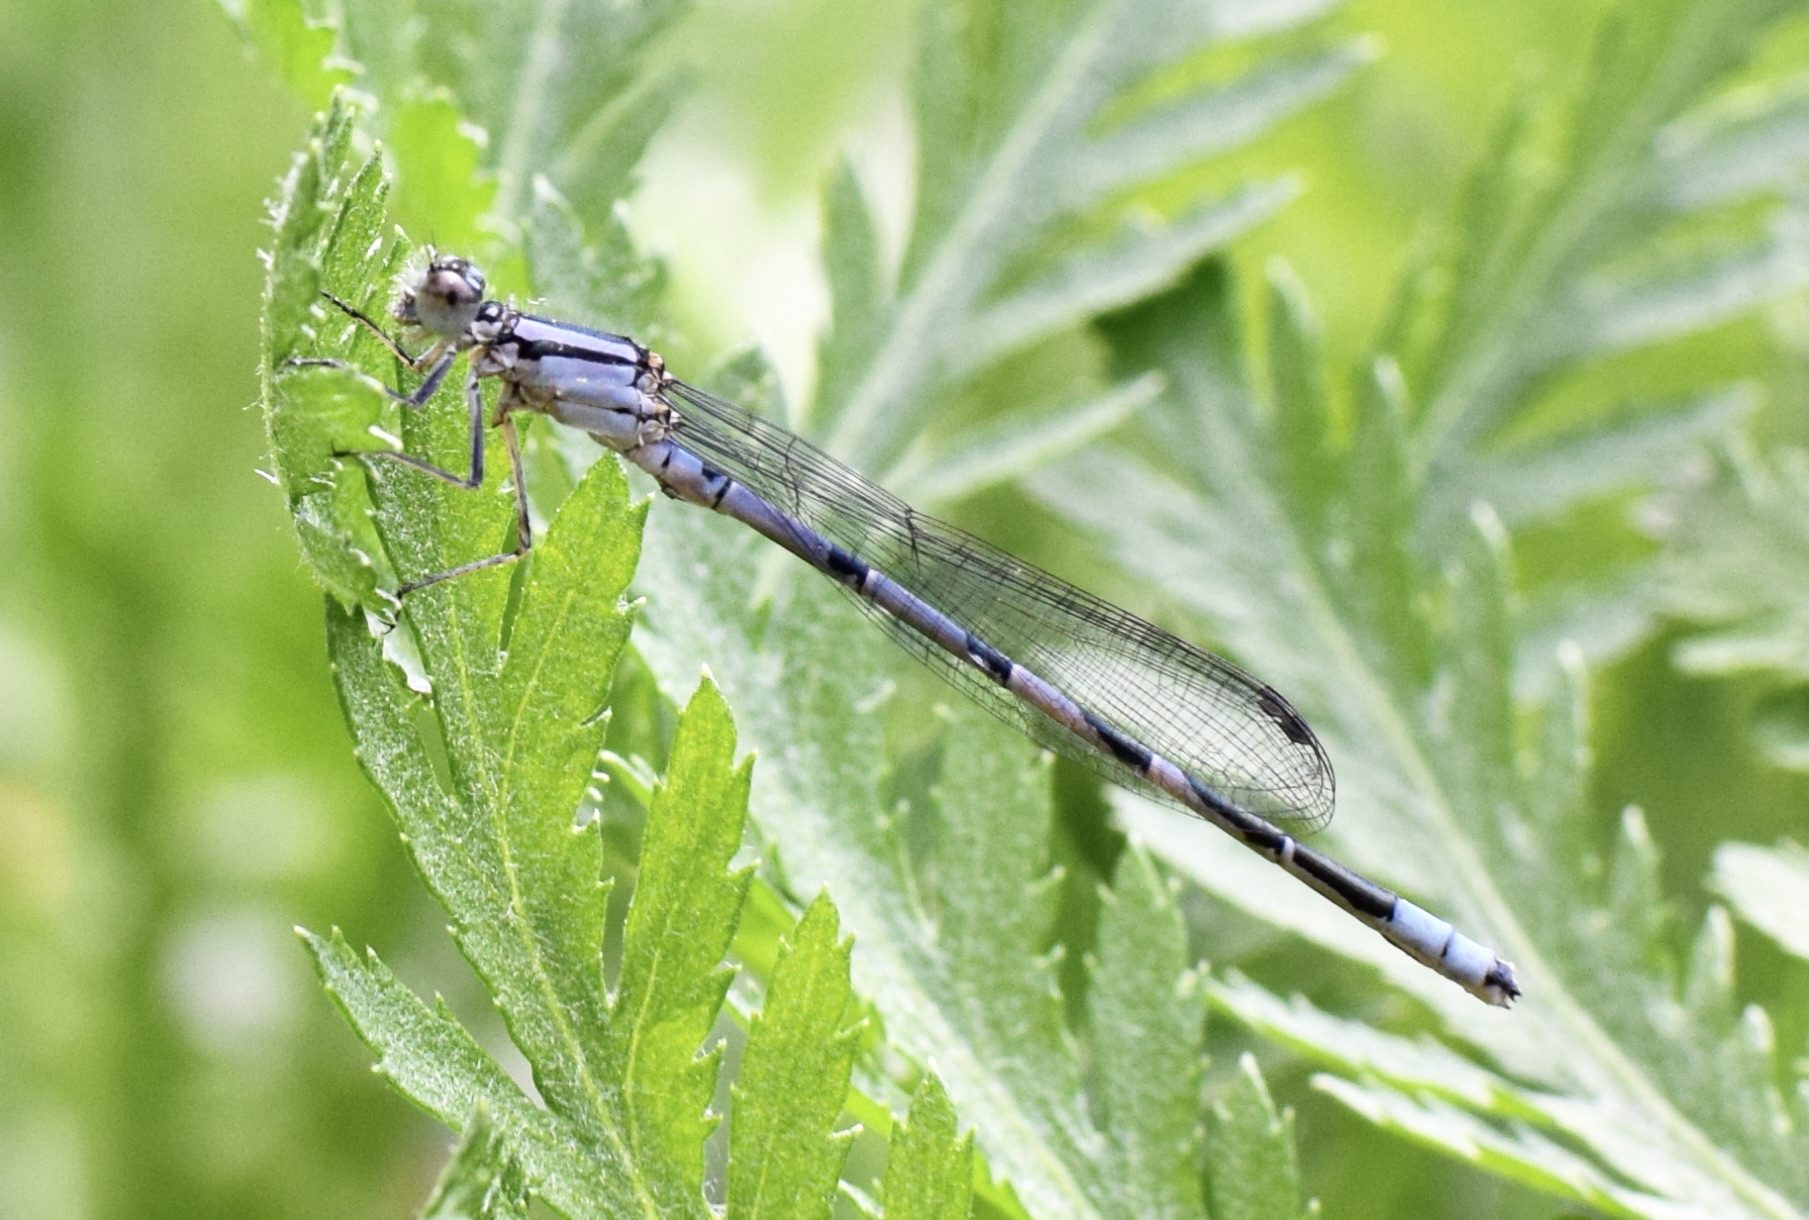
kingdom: Animalia
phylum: Arthropoda
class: Insecta
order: Odonata
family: Coenagrionidae
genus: Enallagma
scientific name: Enallagma ebrium
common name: Marsh bluet
